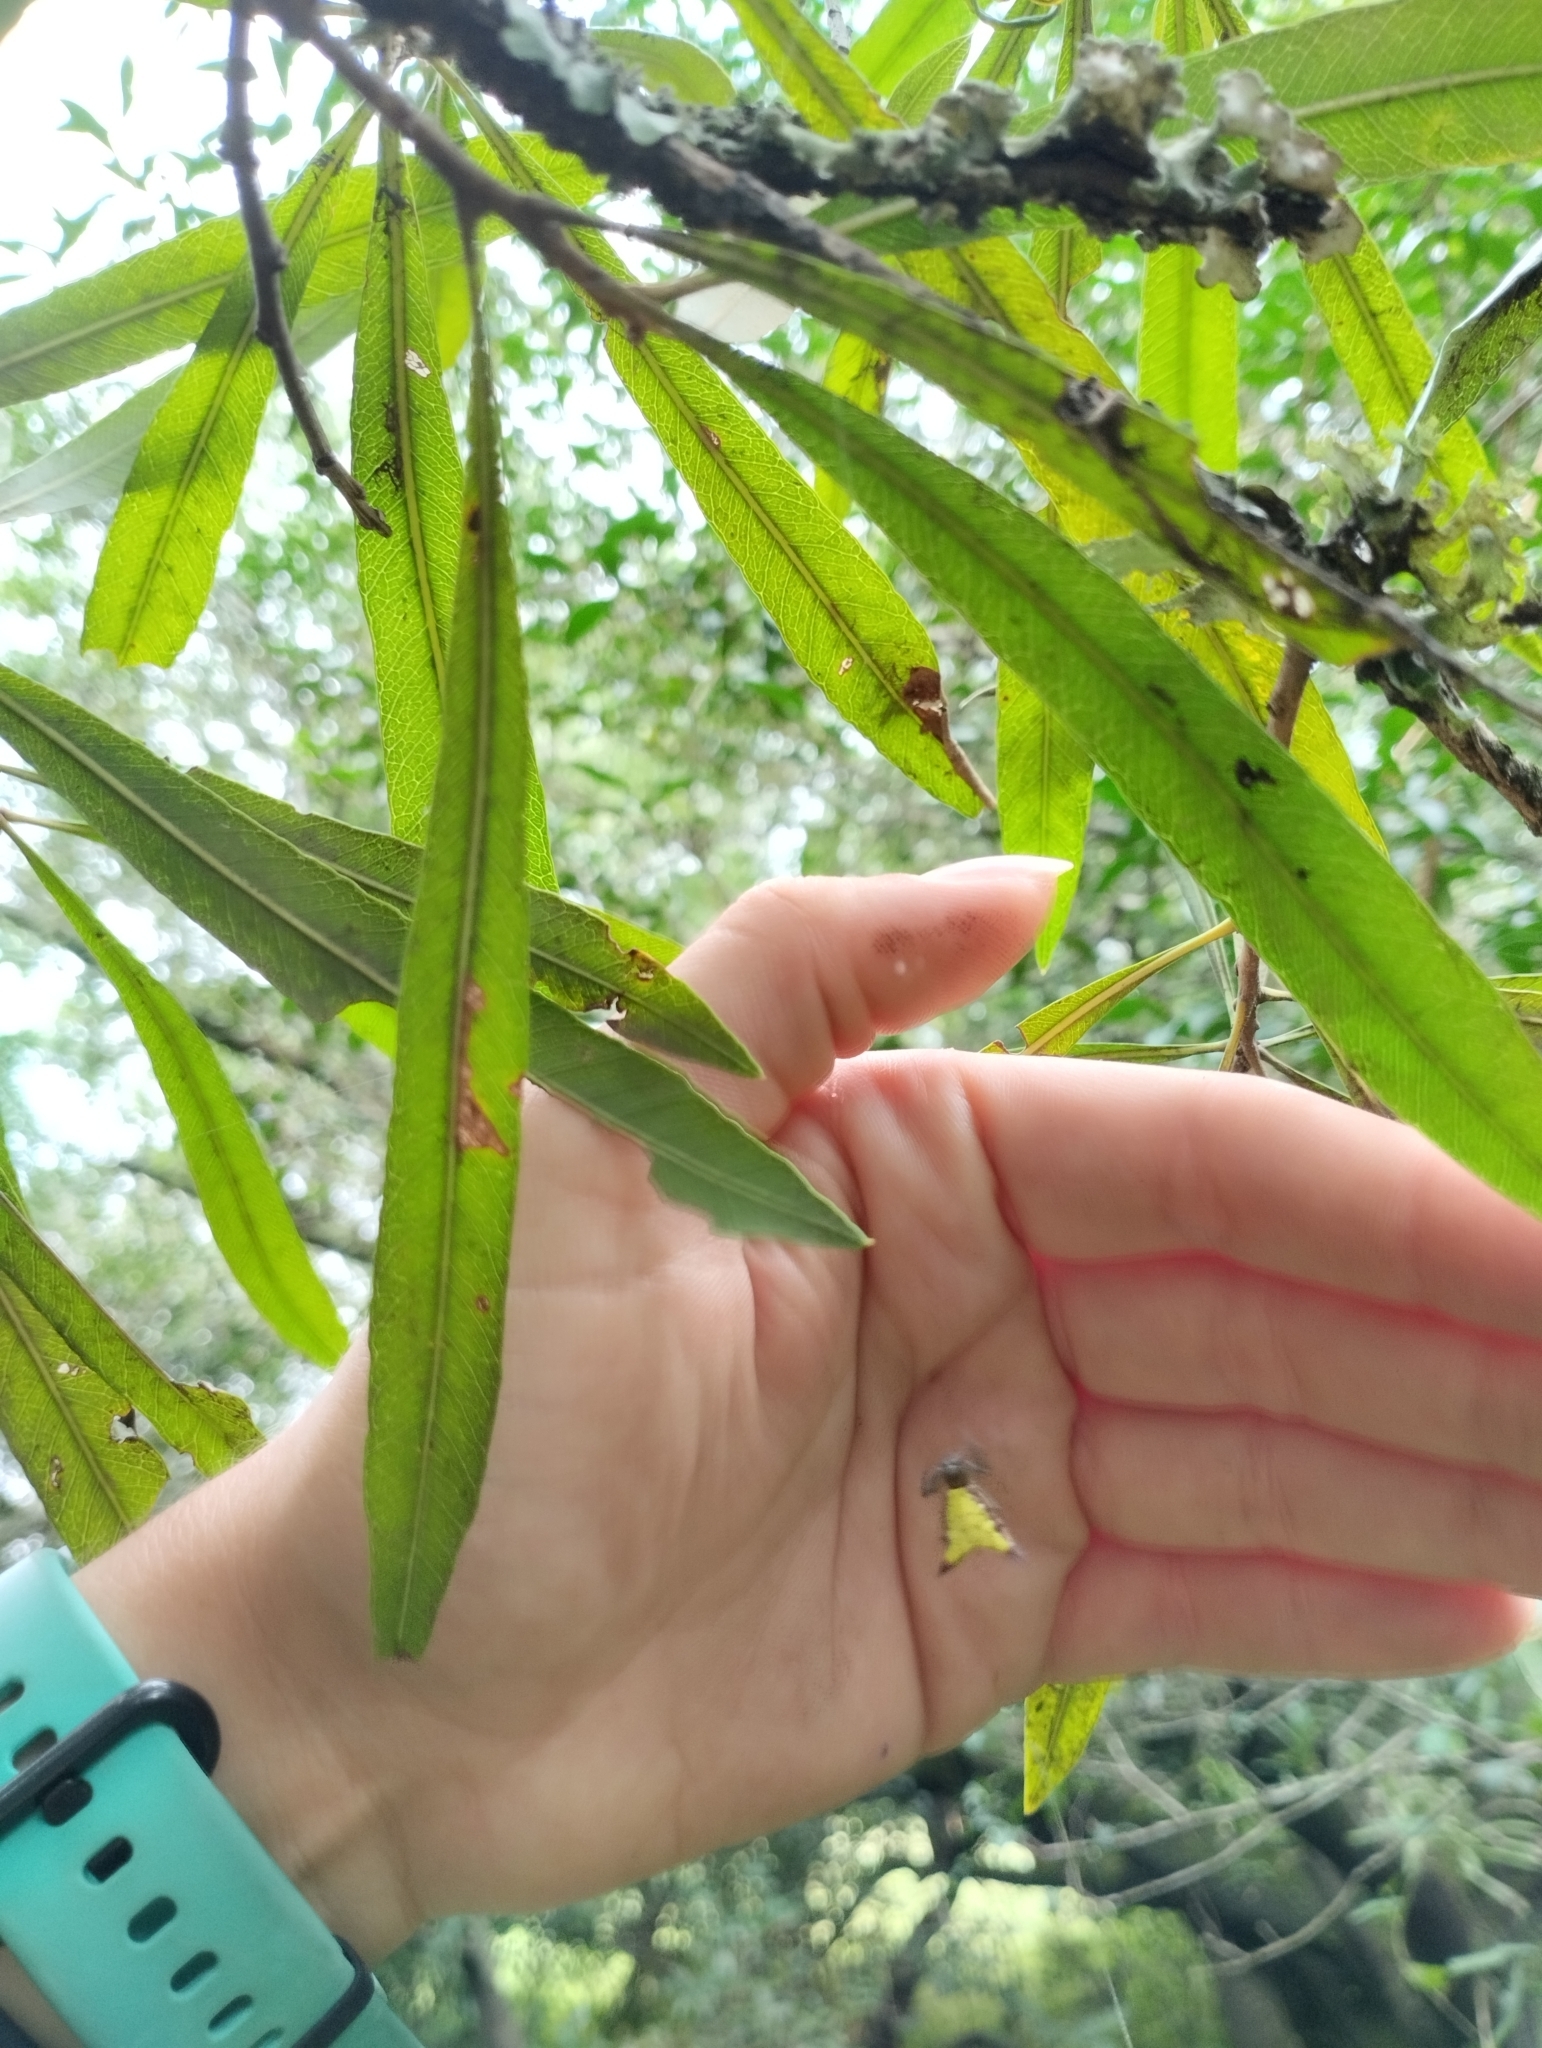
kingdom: Animalia
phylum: Arthropoda
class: Arachnida
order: Araneae
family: Araneidae
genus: Micrathena
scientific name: Micrathena furva
